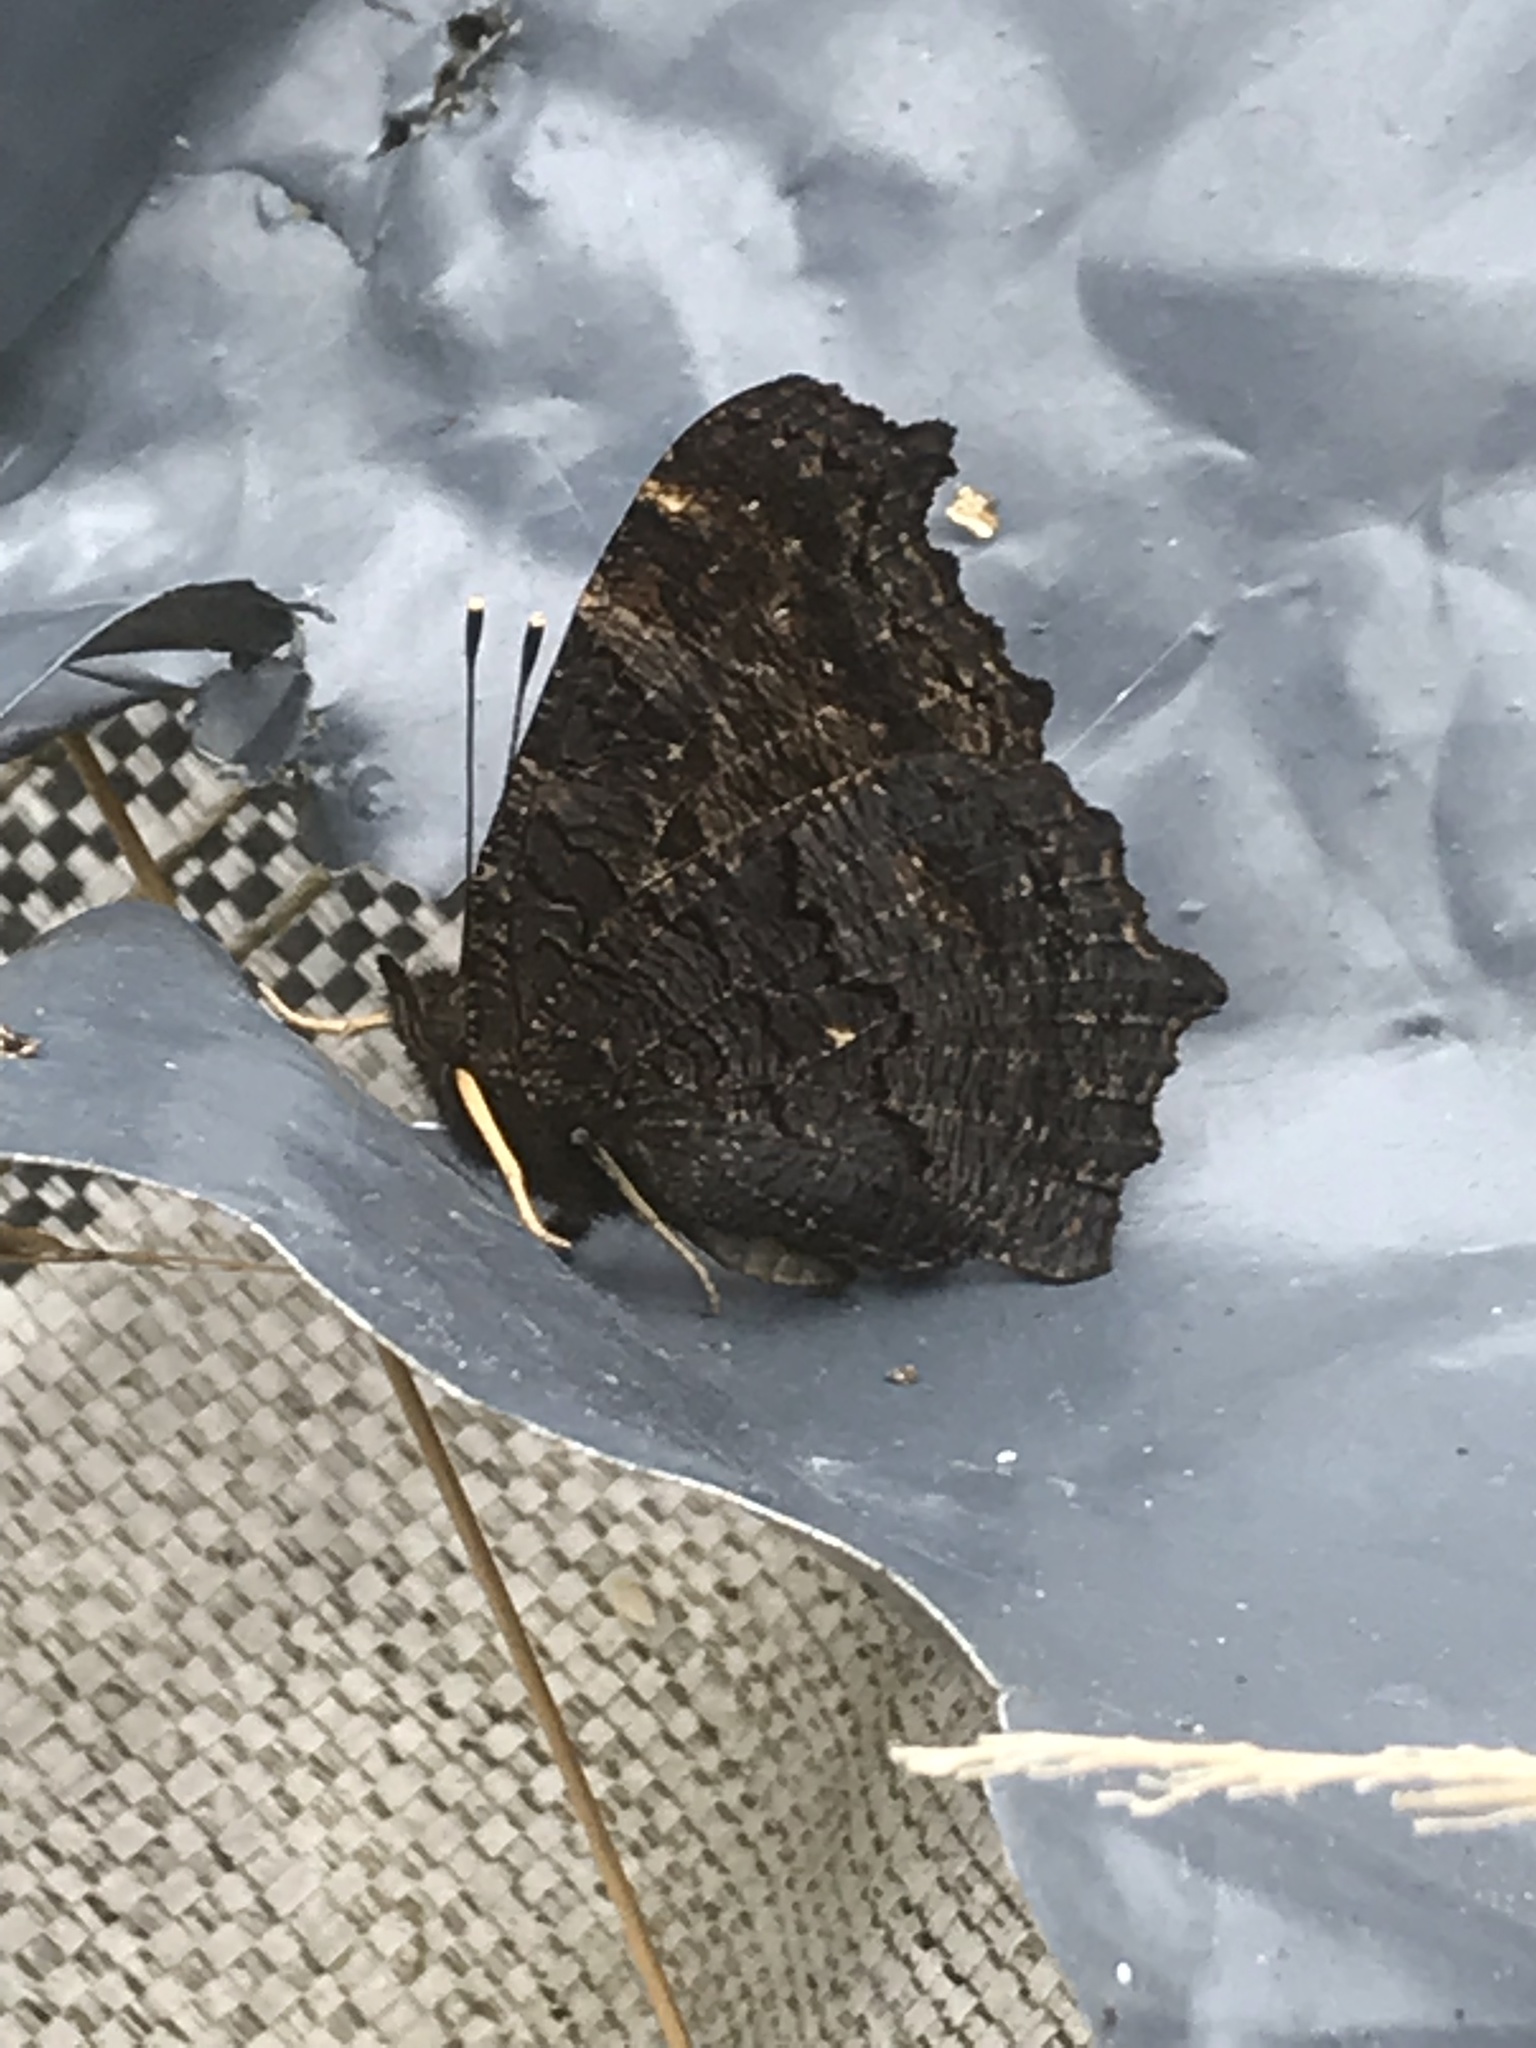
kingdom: Animalia
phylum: Arthropoda
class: Insecta
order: Lepidoptera
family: Nymphalidae
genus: Aglais
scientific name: Aglais io
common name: Peacock
